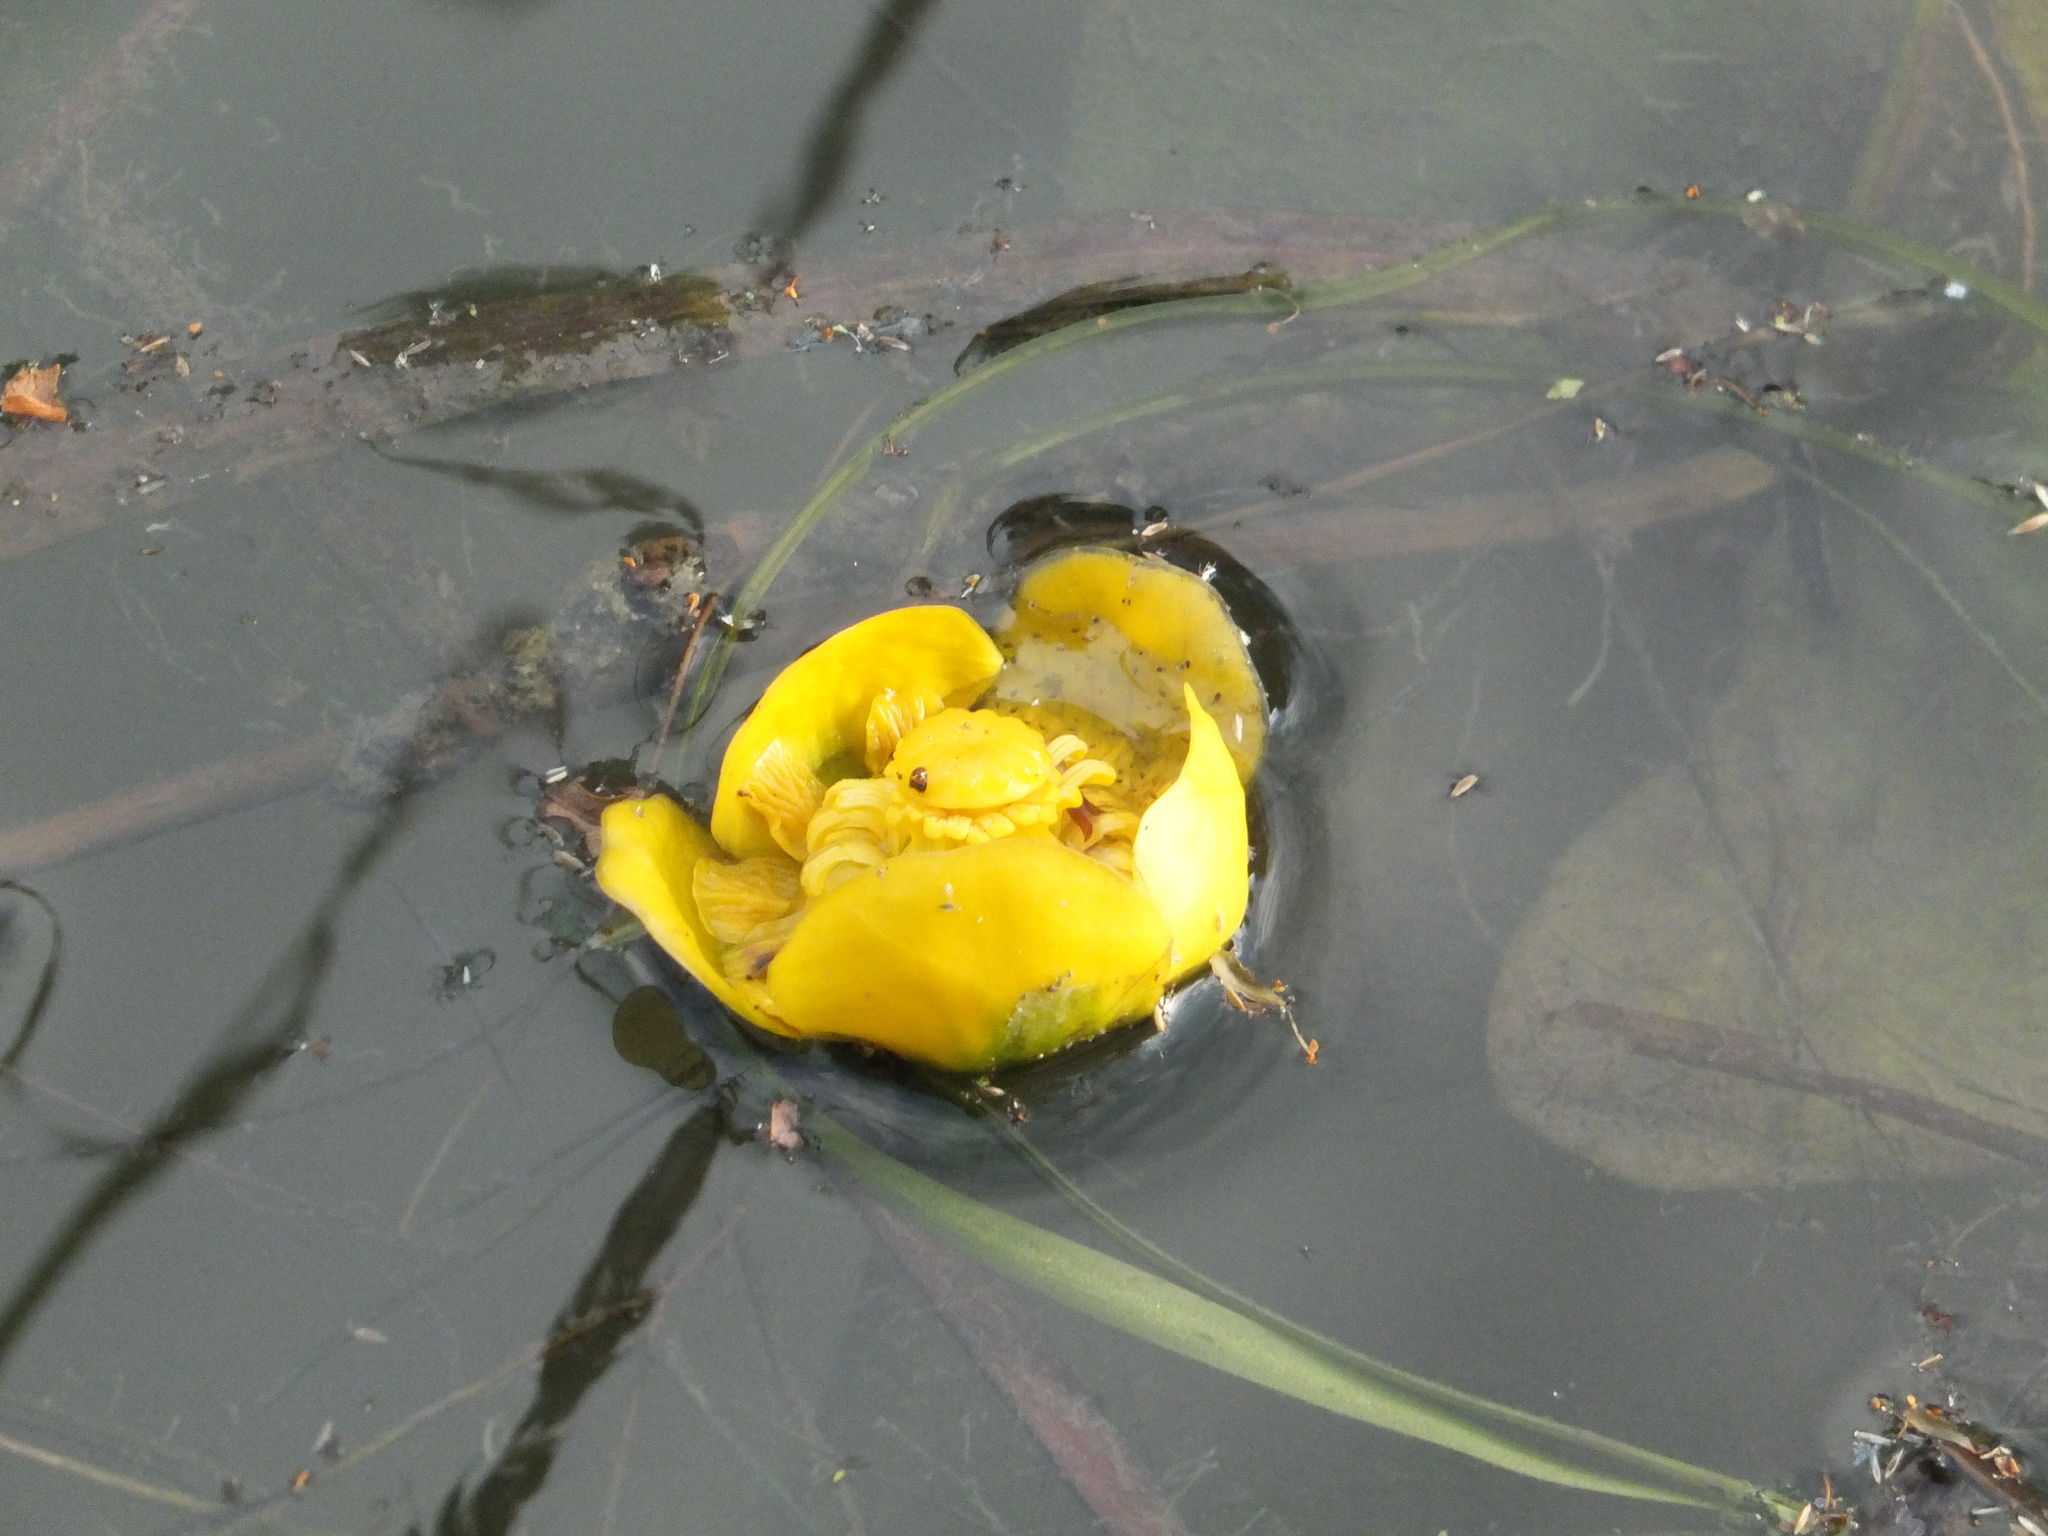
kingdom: Plantae
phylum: Tracheophyta
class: Magnoliopsida
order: Nymphaeales
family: Nymphaeaceae
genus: Nuphar
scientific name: Nuphar lutea
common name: Yellow water-lily
